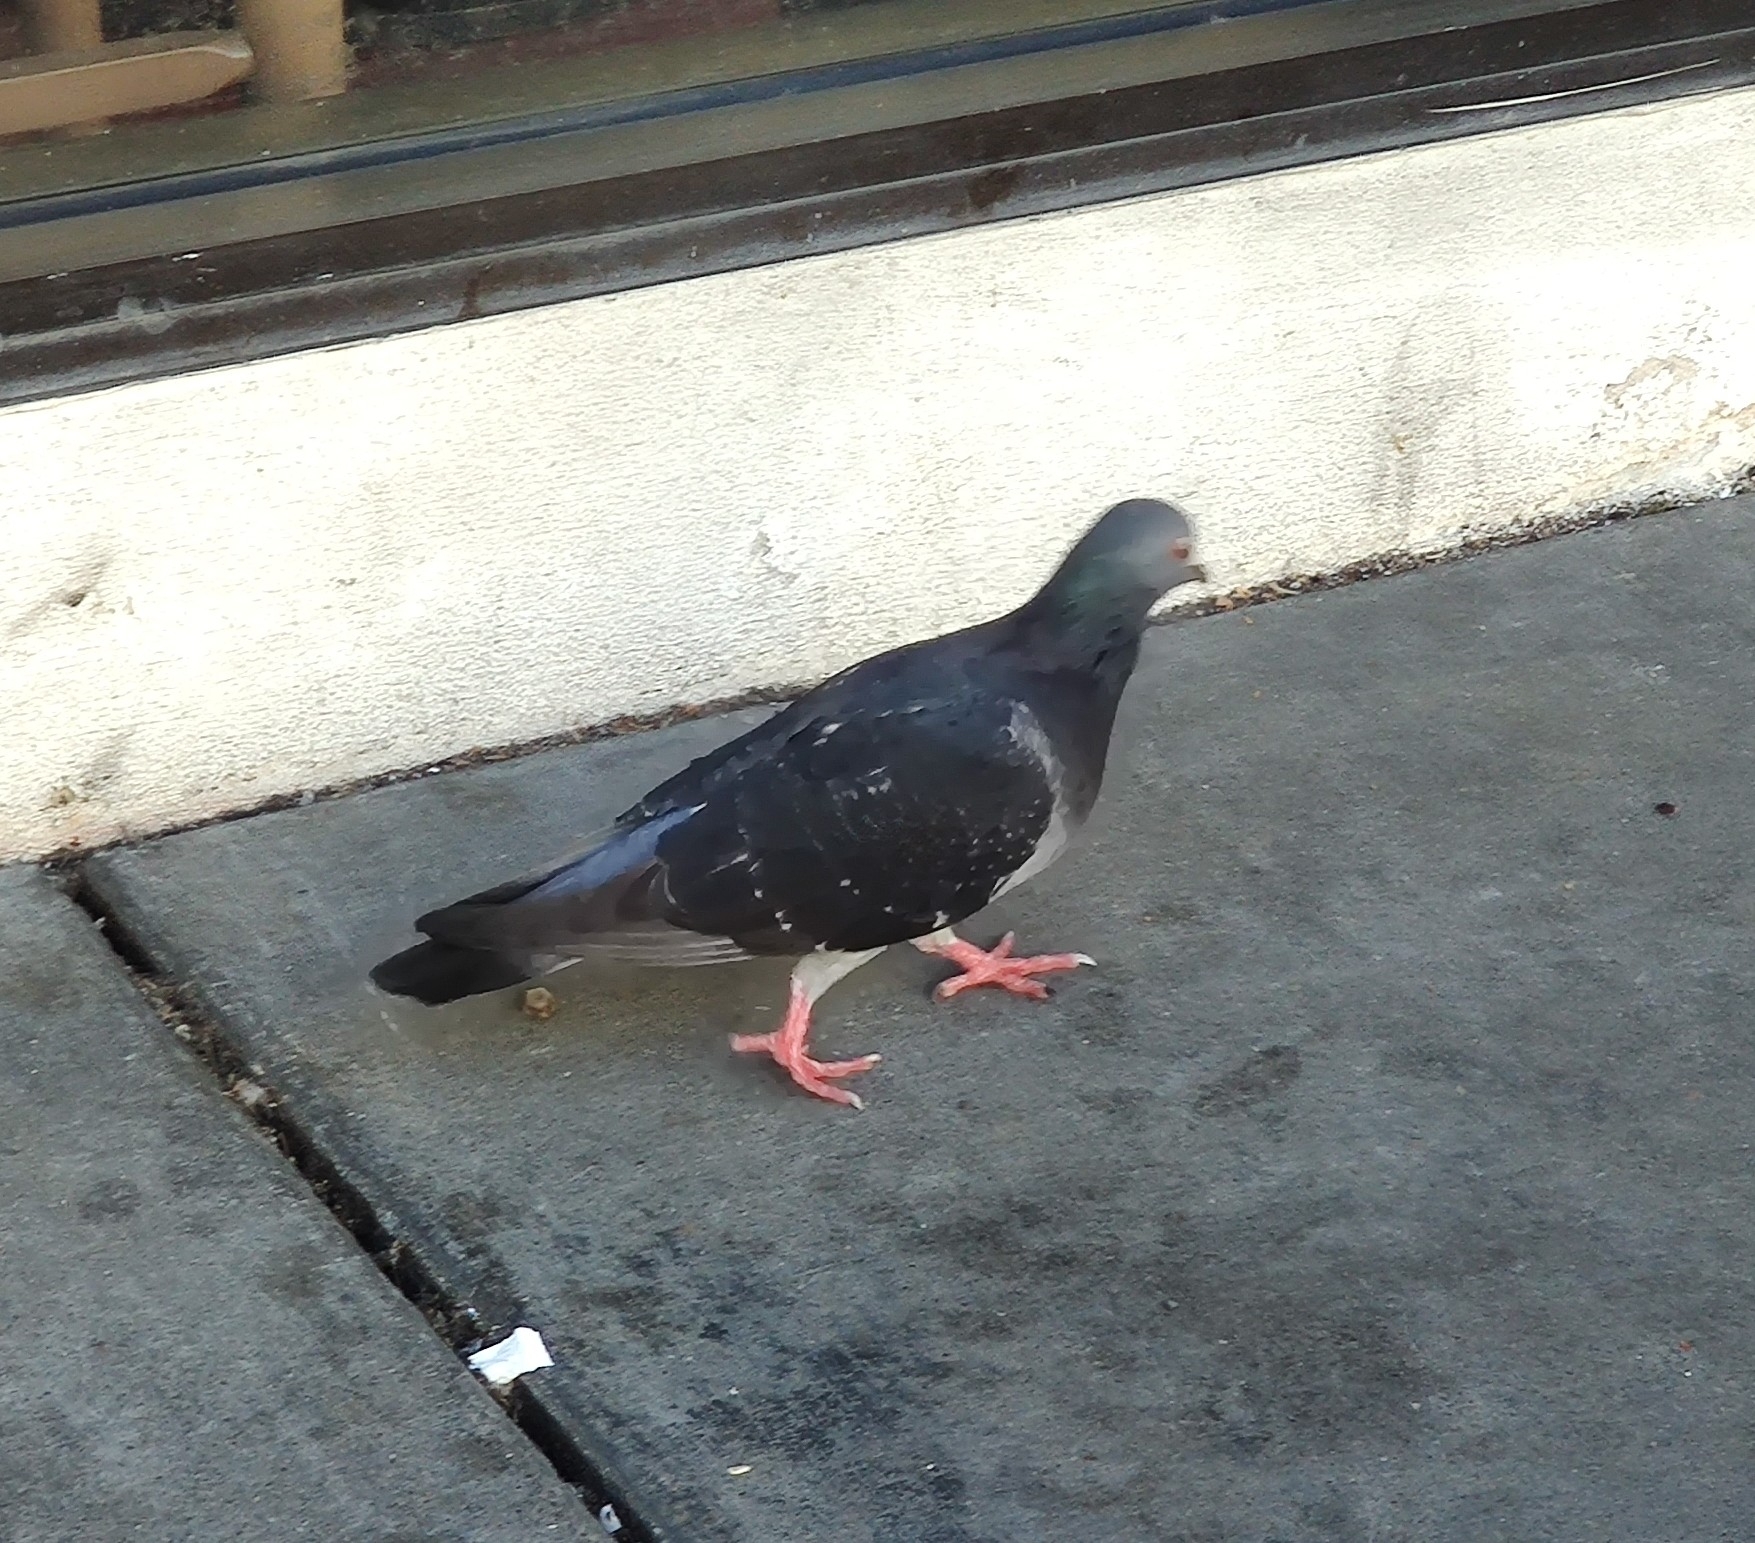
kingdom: Animalia
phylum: Chordata
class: Aves
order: Columbiformes
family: Columbidae
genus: Columba
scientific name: Columba livia
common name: Rock pigeon
